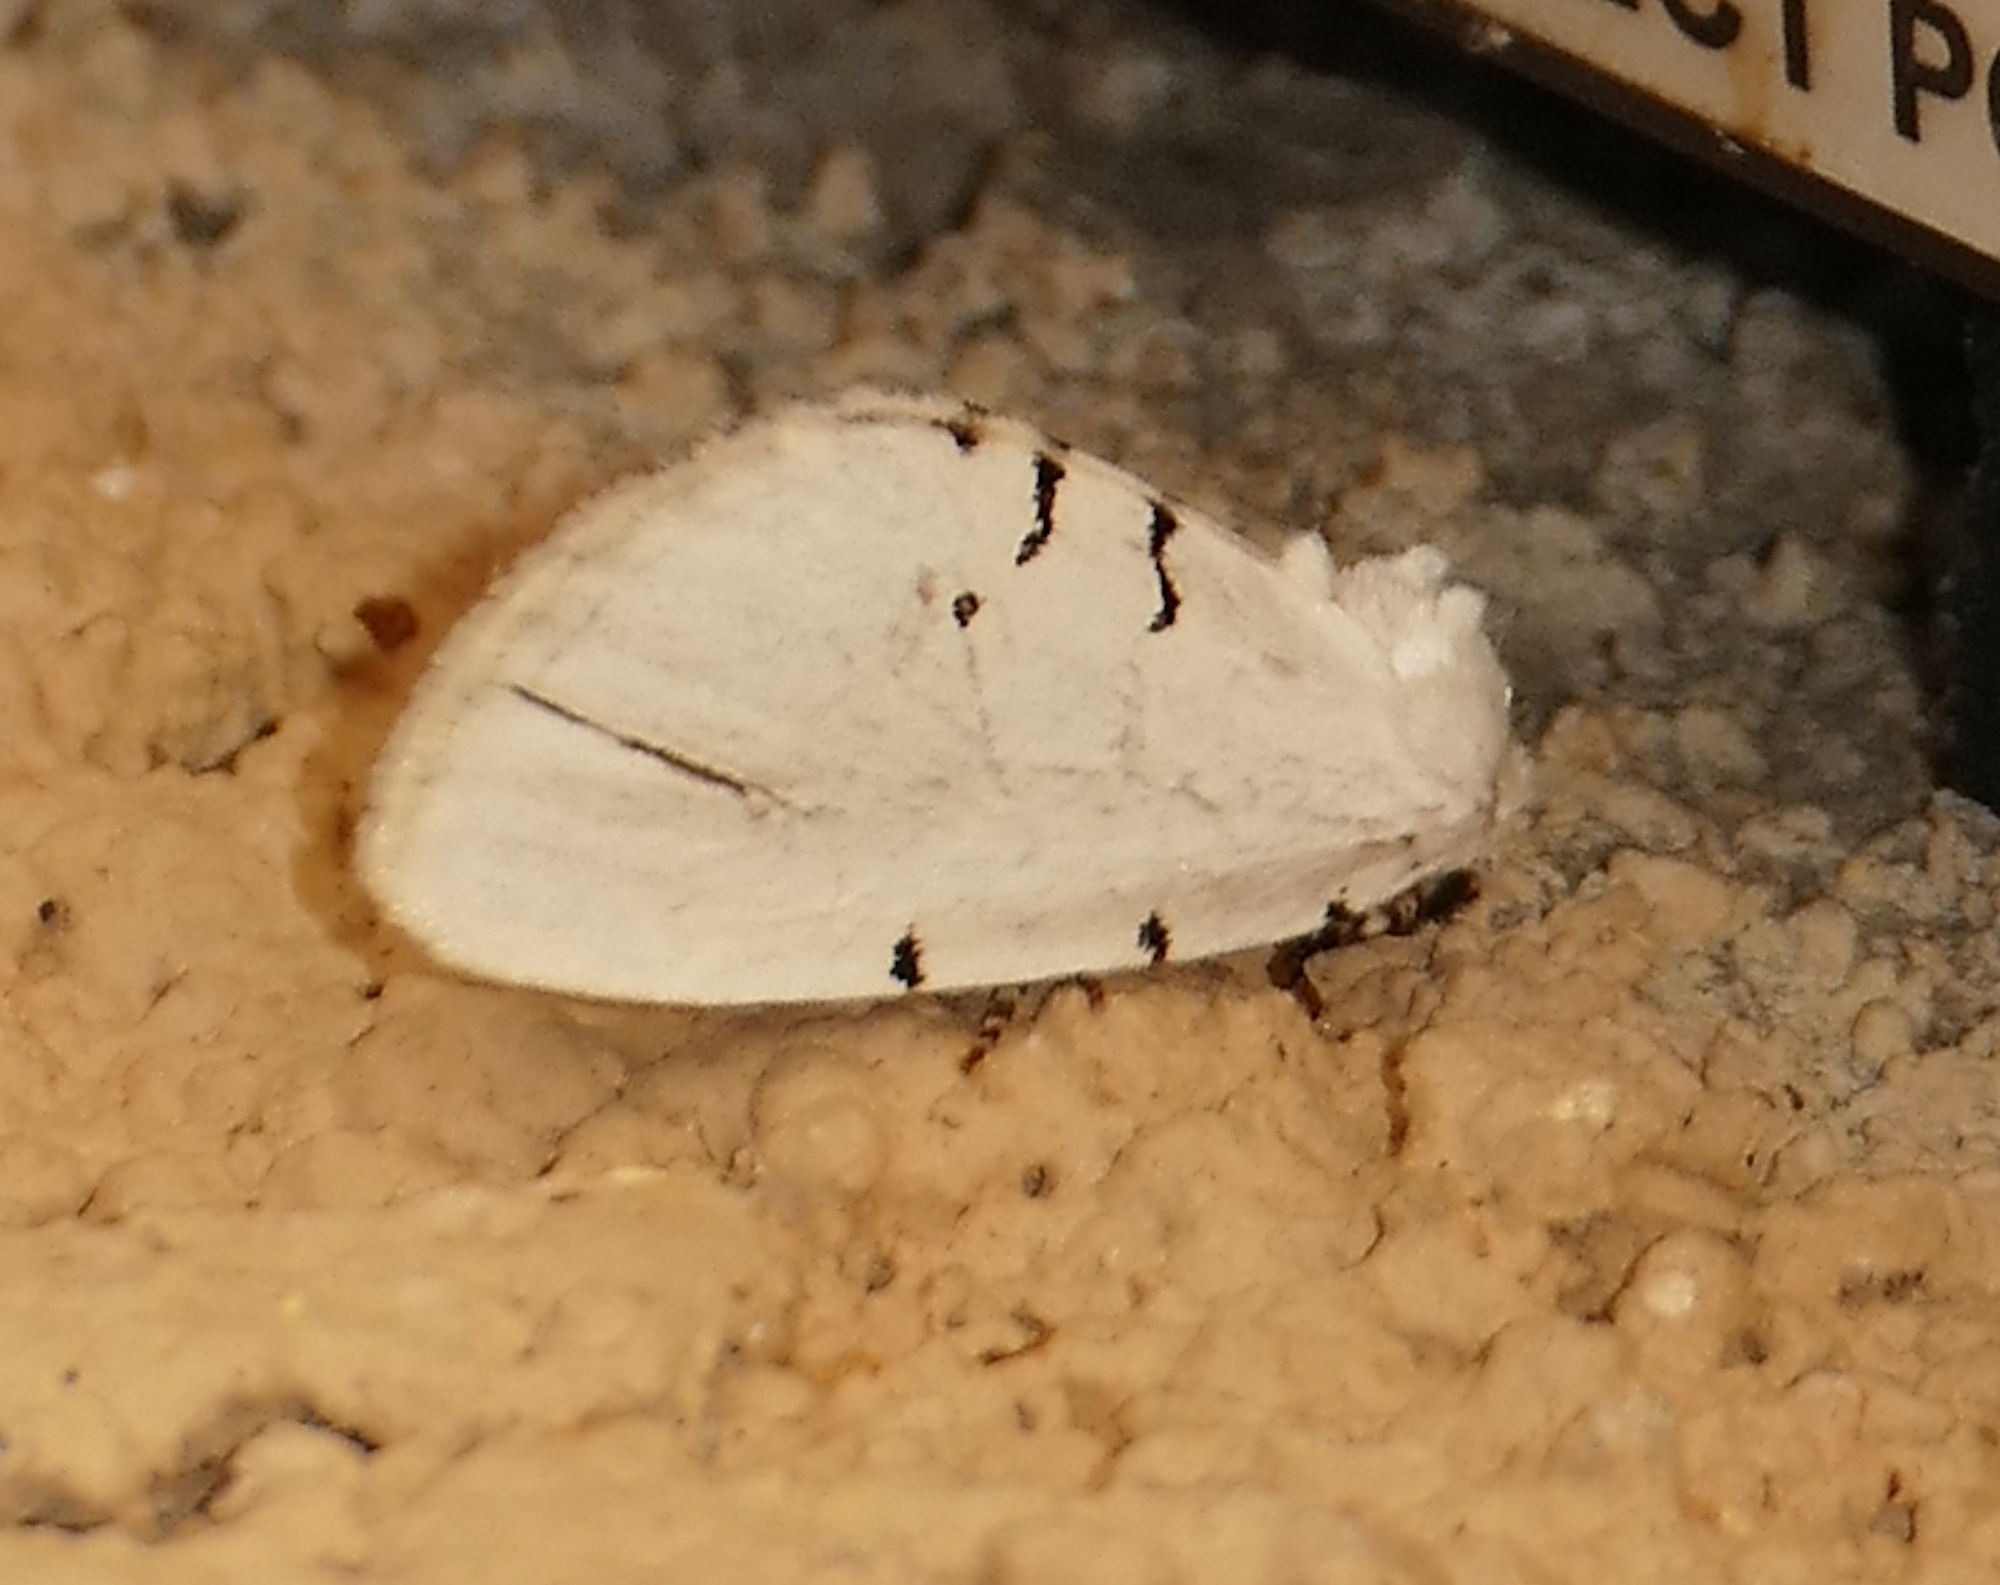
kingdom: Animalia
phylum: Arthropoda
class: Insecta
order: Lepidoptera
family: Noctuidae
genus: Hemioslaria
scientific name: Hemioslaria pima
